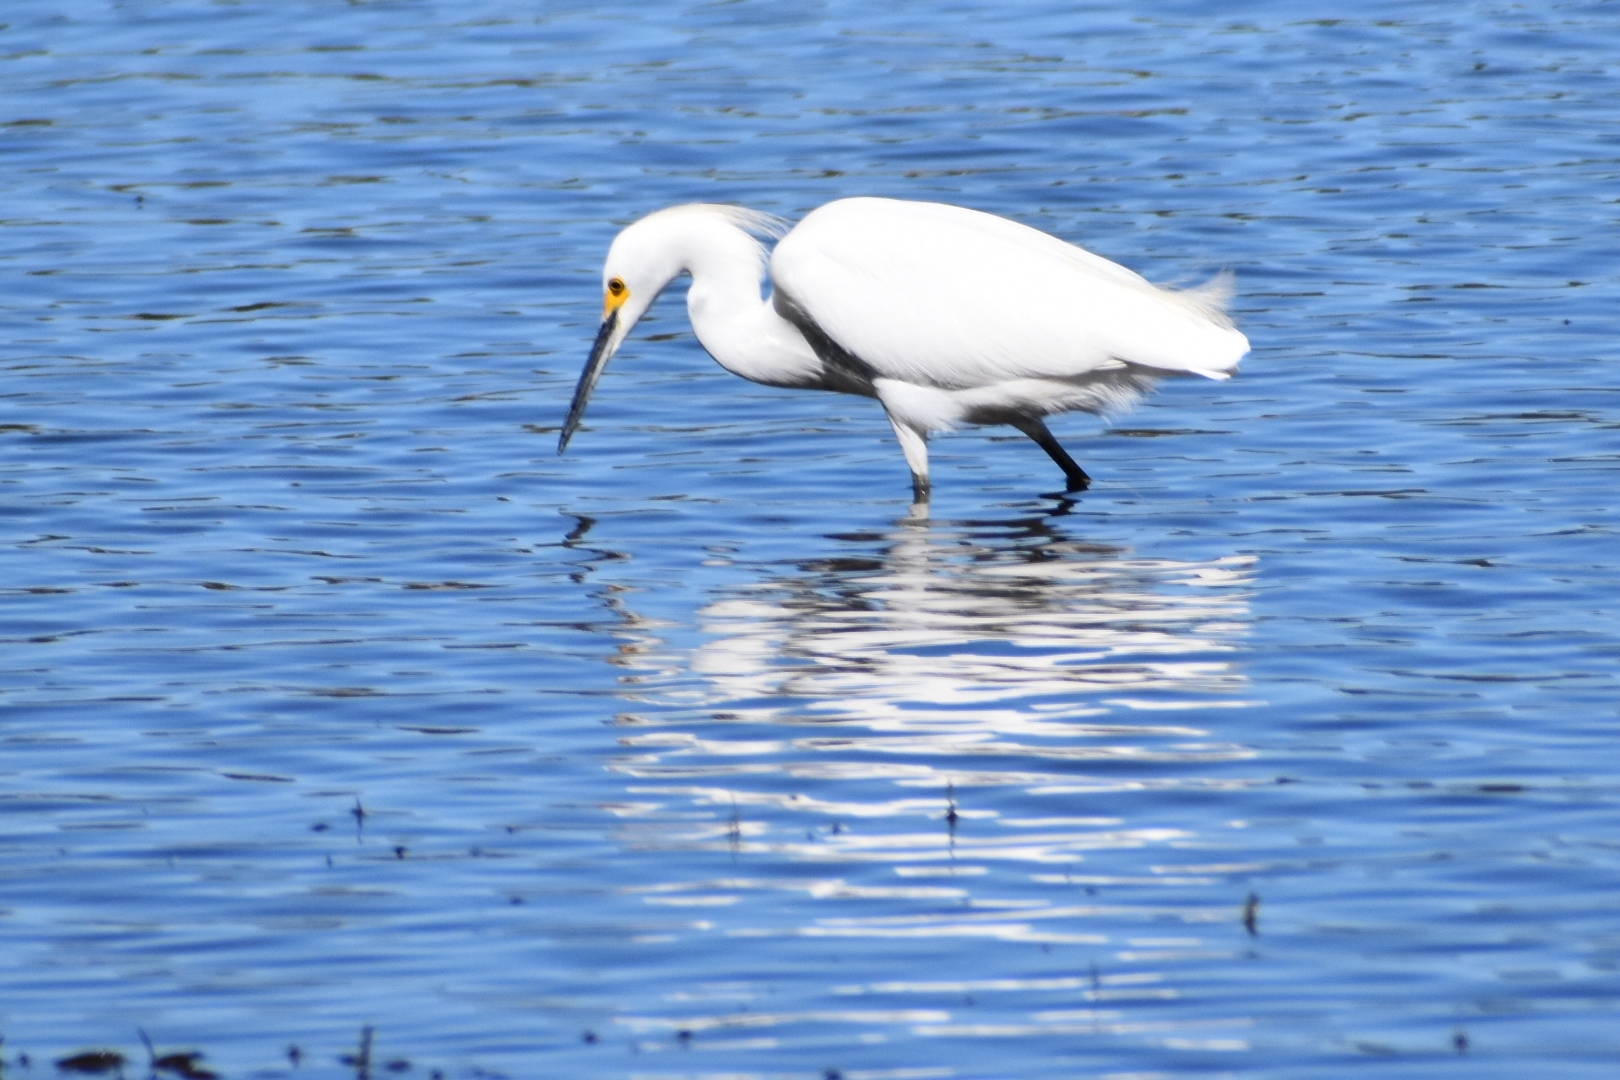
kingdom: Animalia
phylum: Chordata
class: Aves
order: Pelecaniformes
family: Ardeidae
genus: Egretta
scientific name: Egretta thula
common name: Snowy egret
